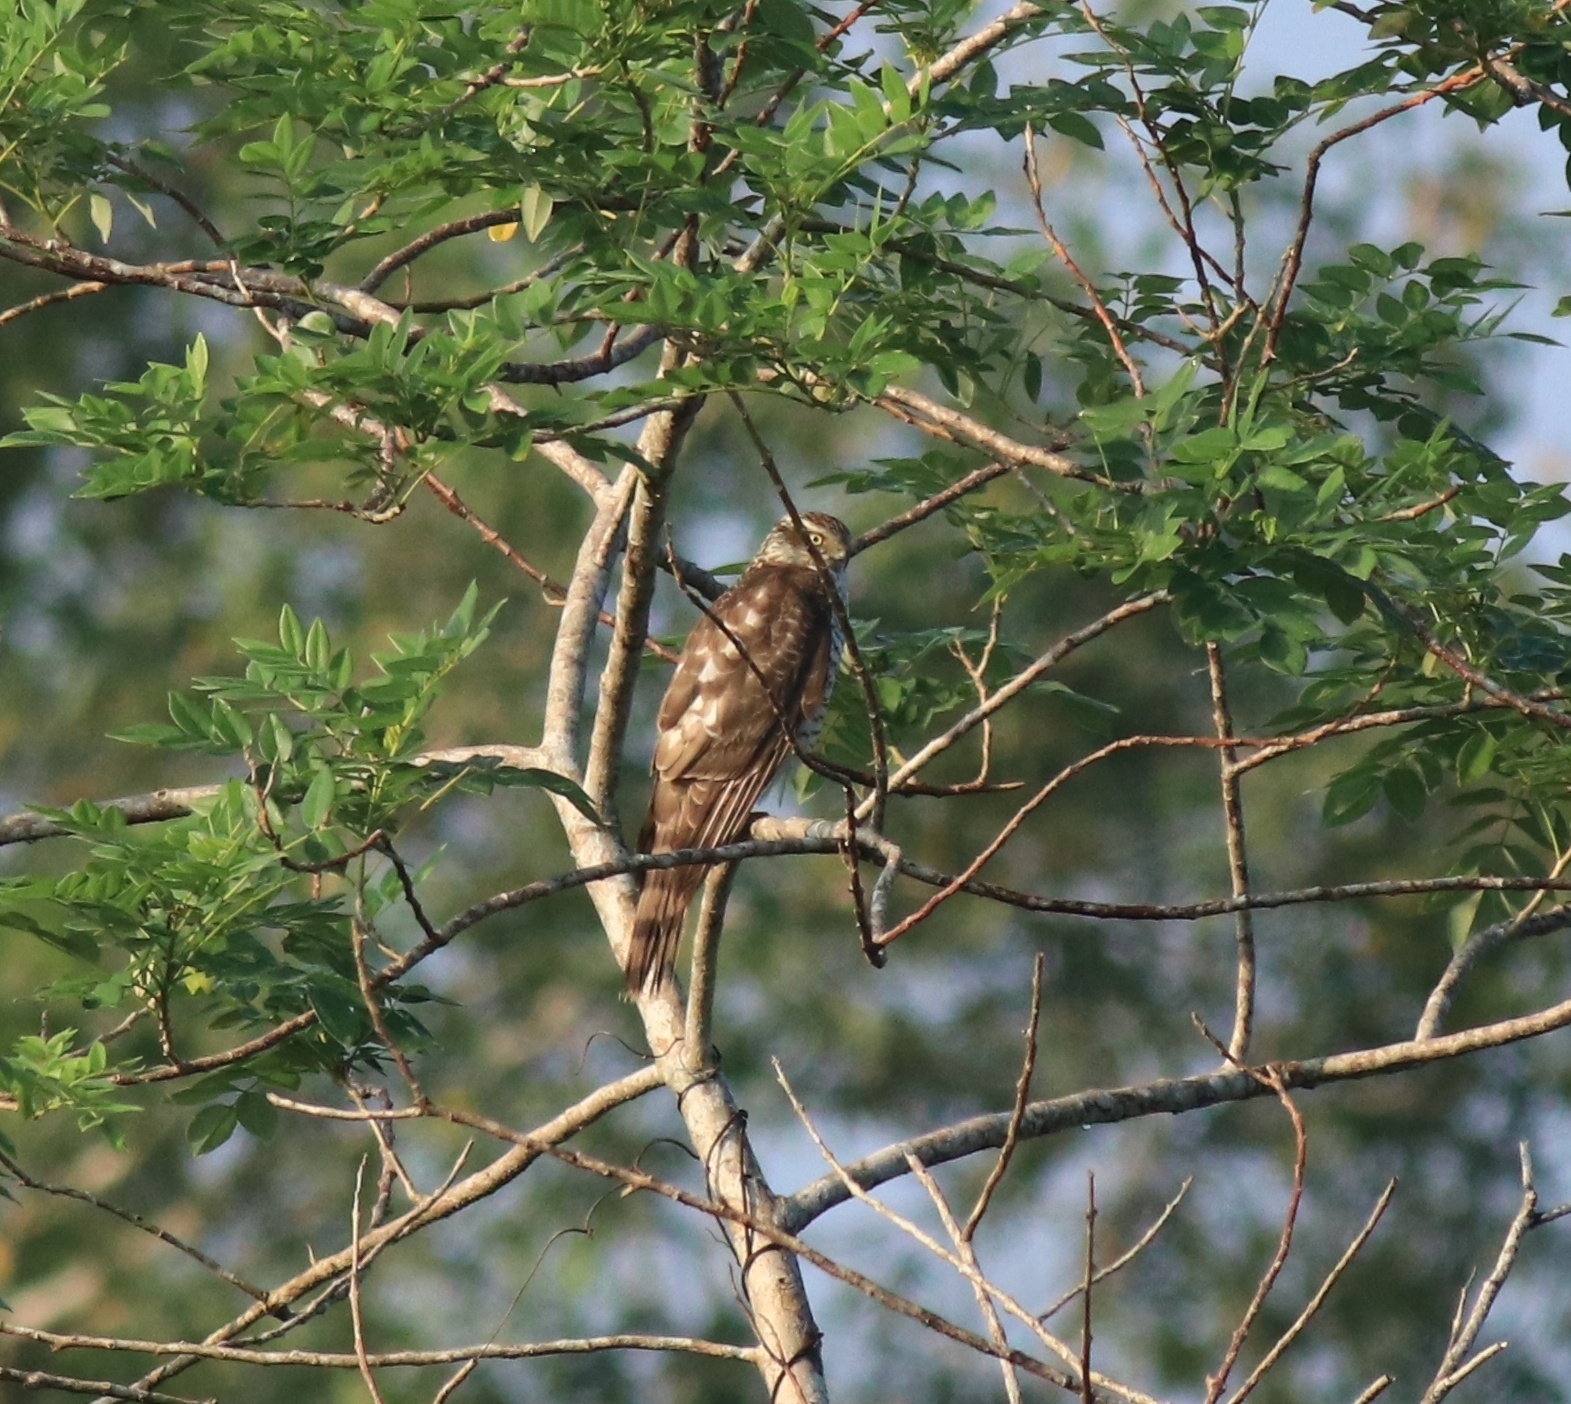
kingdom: Animalia
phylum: Chordata
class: Aves
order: Accipitriformes
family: Accipitridae
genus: Accipiter
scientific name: Accipiter nisus
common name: Eurasian sparrowhawk
